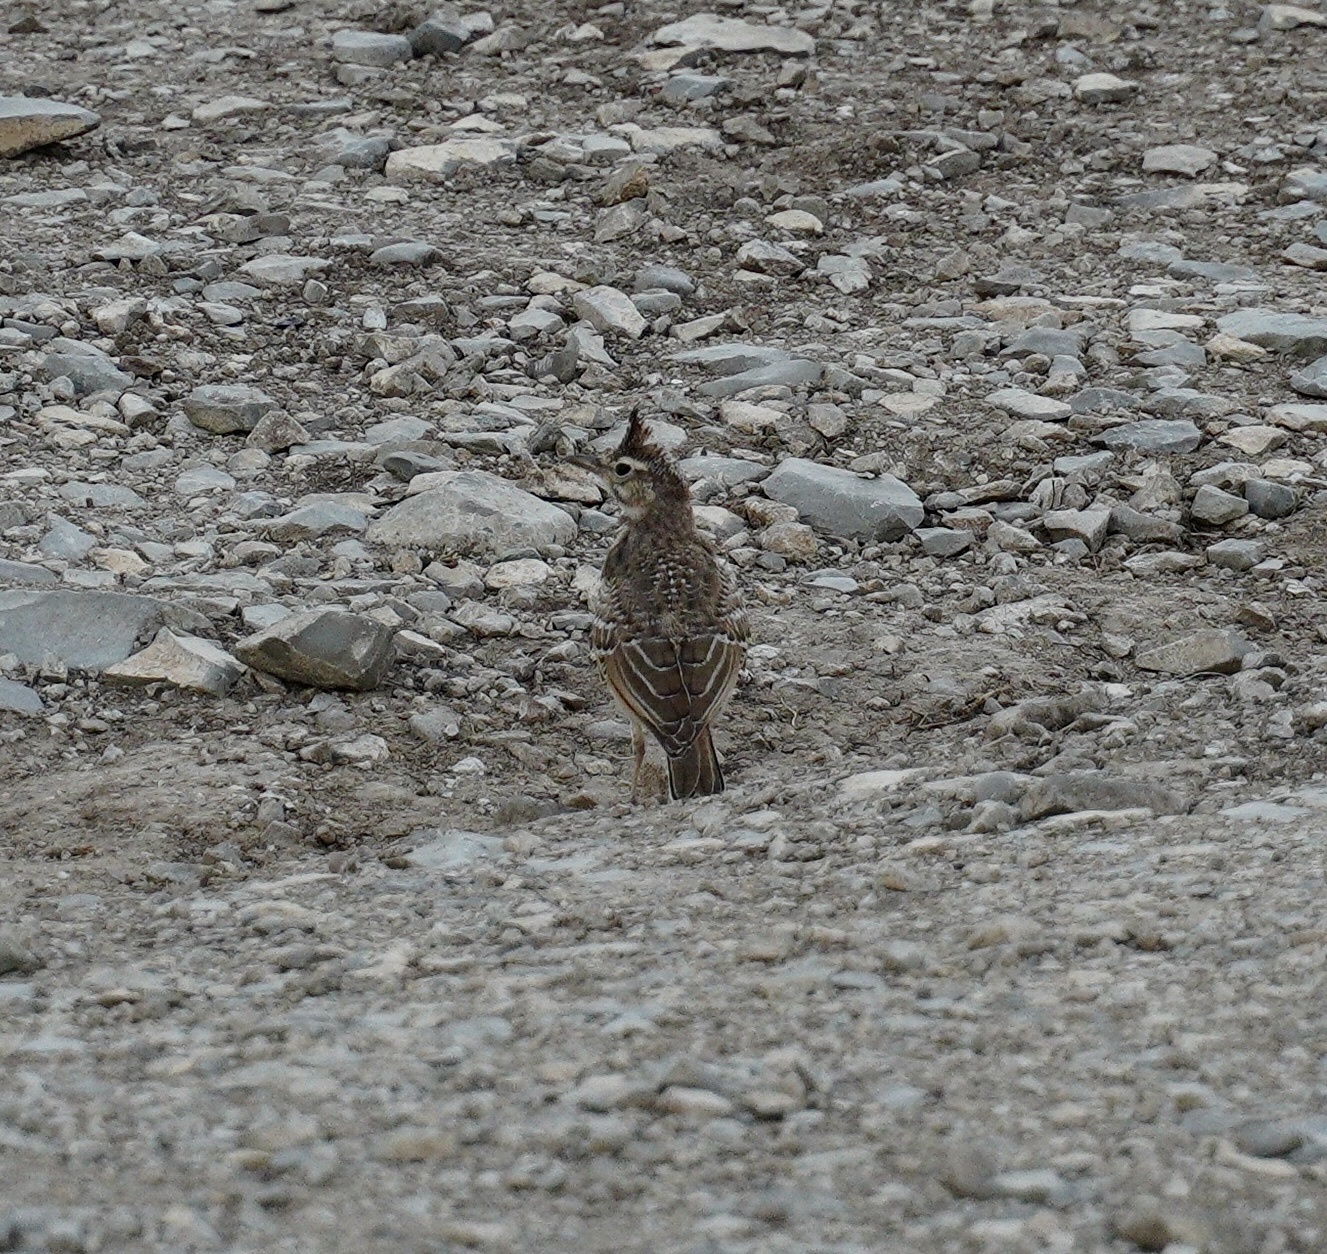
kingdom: Animalia
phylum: Chordata
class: Aves
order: Passeriformes
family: Alaudidae
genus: Galerida
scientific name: Galerida cristata
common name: Crested lark
